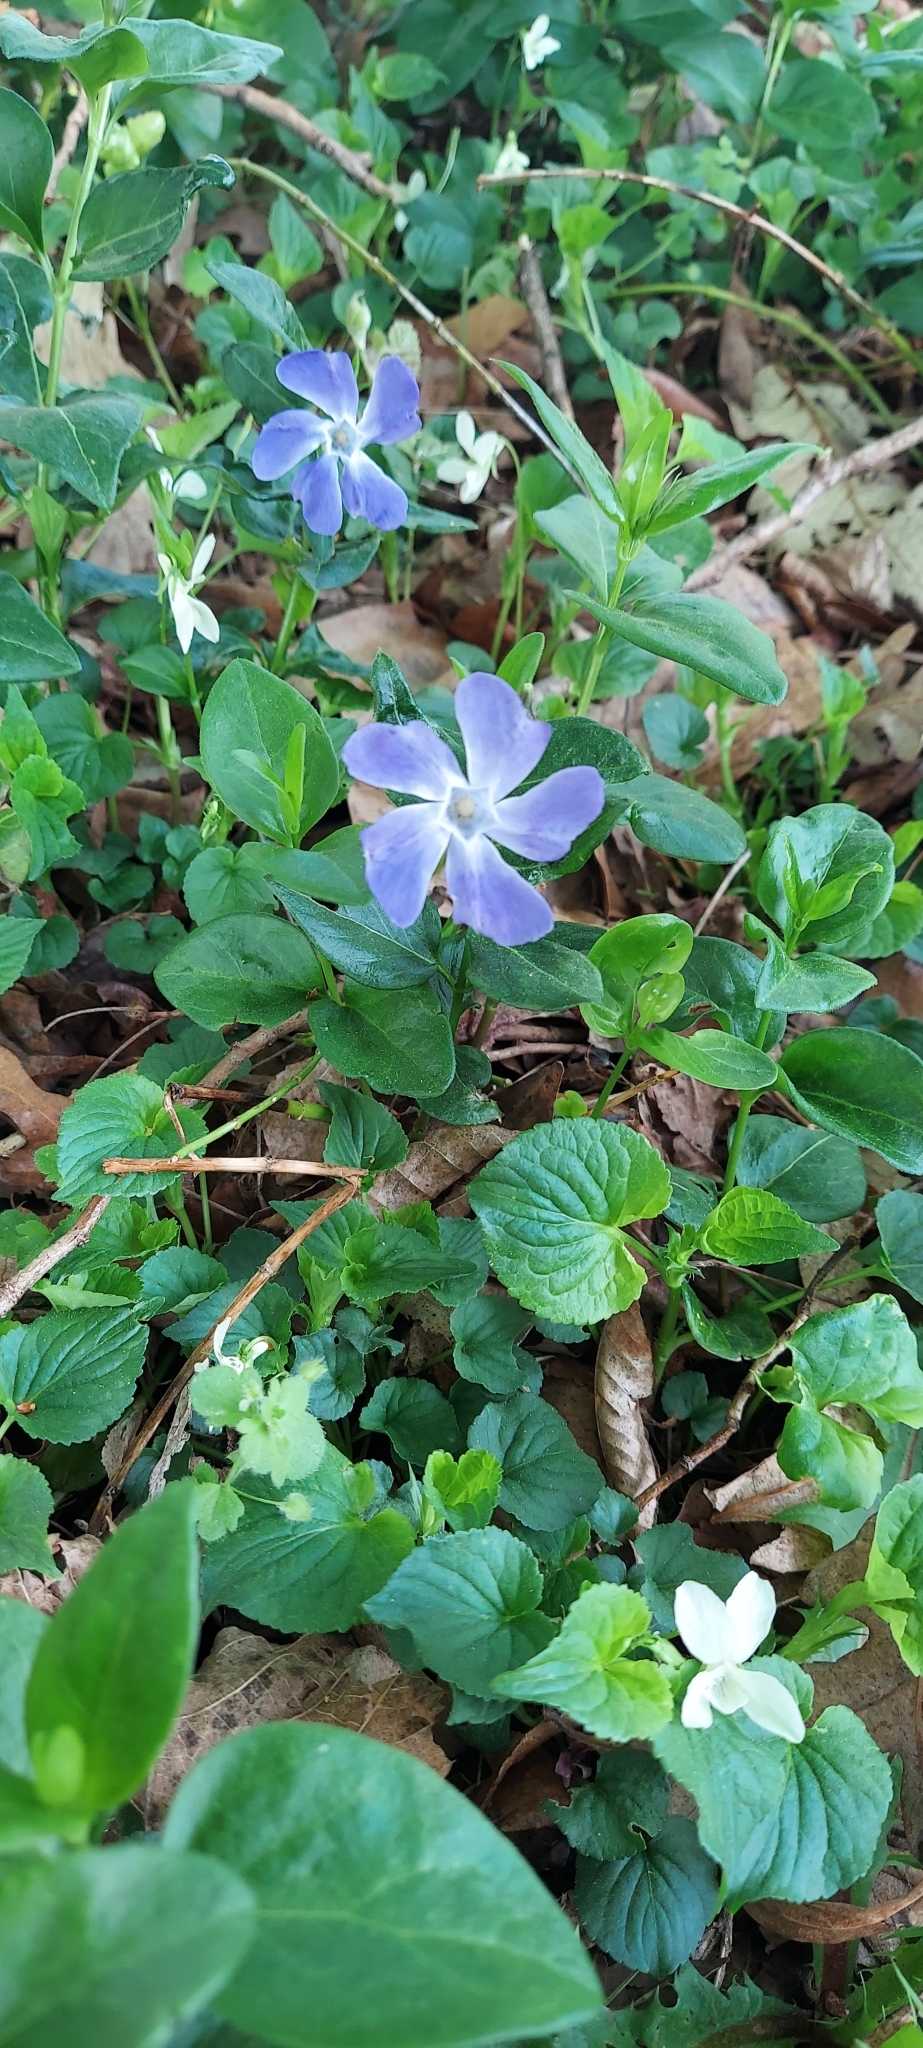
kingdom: Plantae
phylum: Tracheophyta
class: Magnoliopsida
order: Gentianales
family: Apocynaceae
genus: Vinca
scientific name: Vinca major
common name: Greater periwinkle
